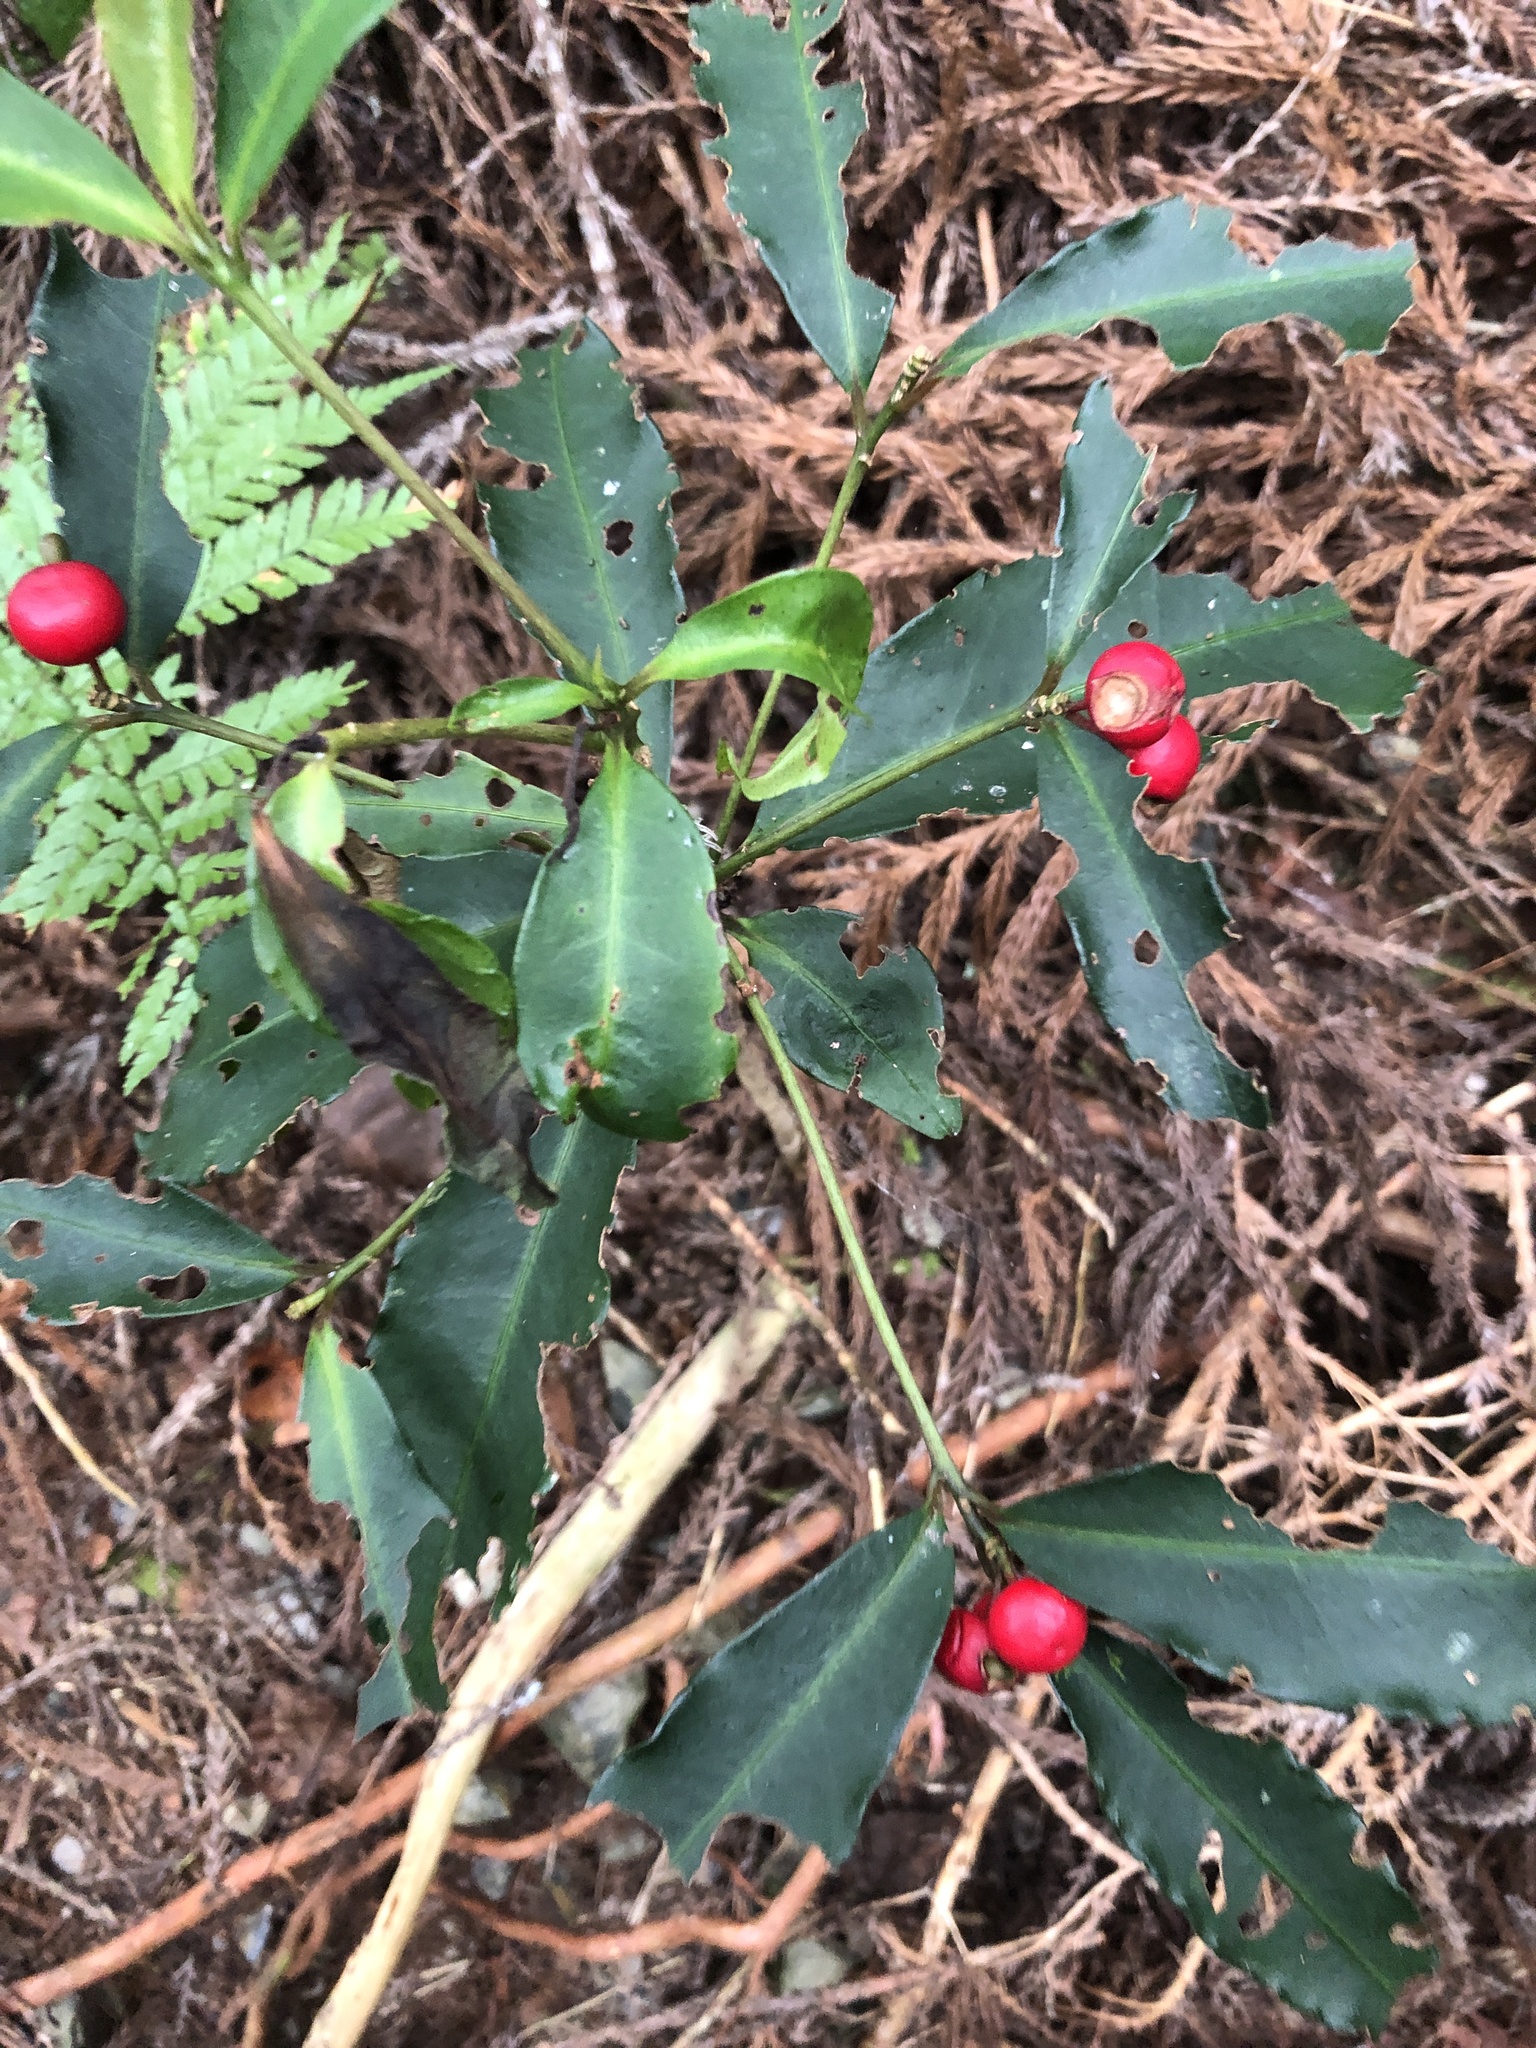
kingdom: Plantae
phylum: Tracheophyta
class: Magnoliopsida
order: Ericales
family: Primulaceae
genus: Ardisia
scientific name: Ardisia crenata
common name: Hen's eyes
